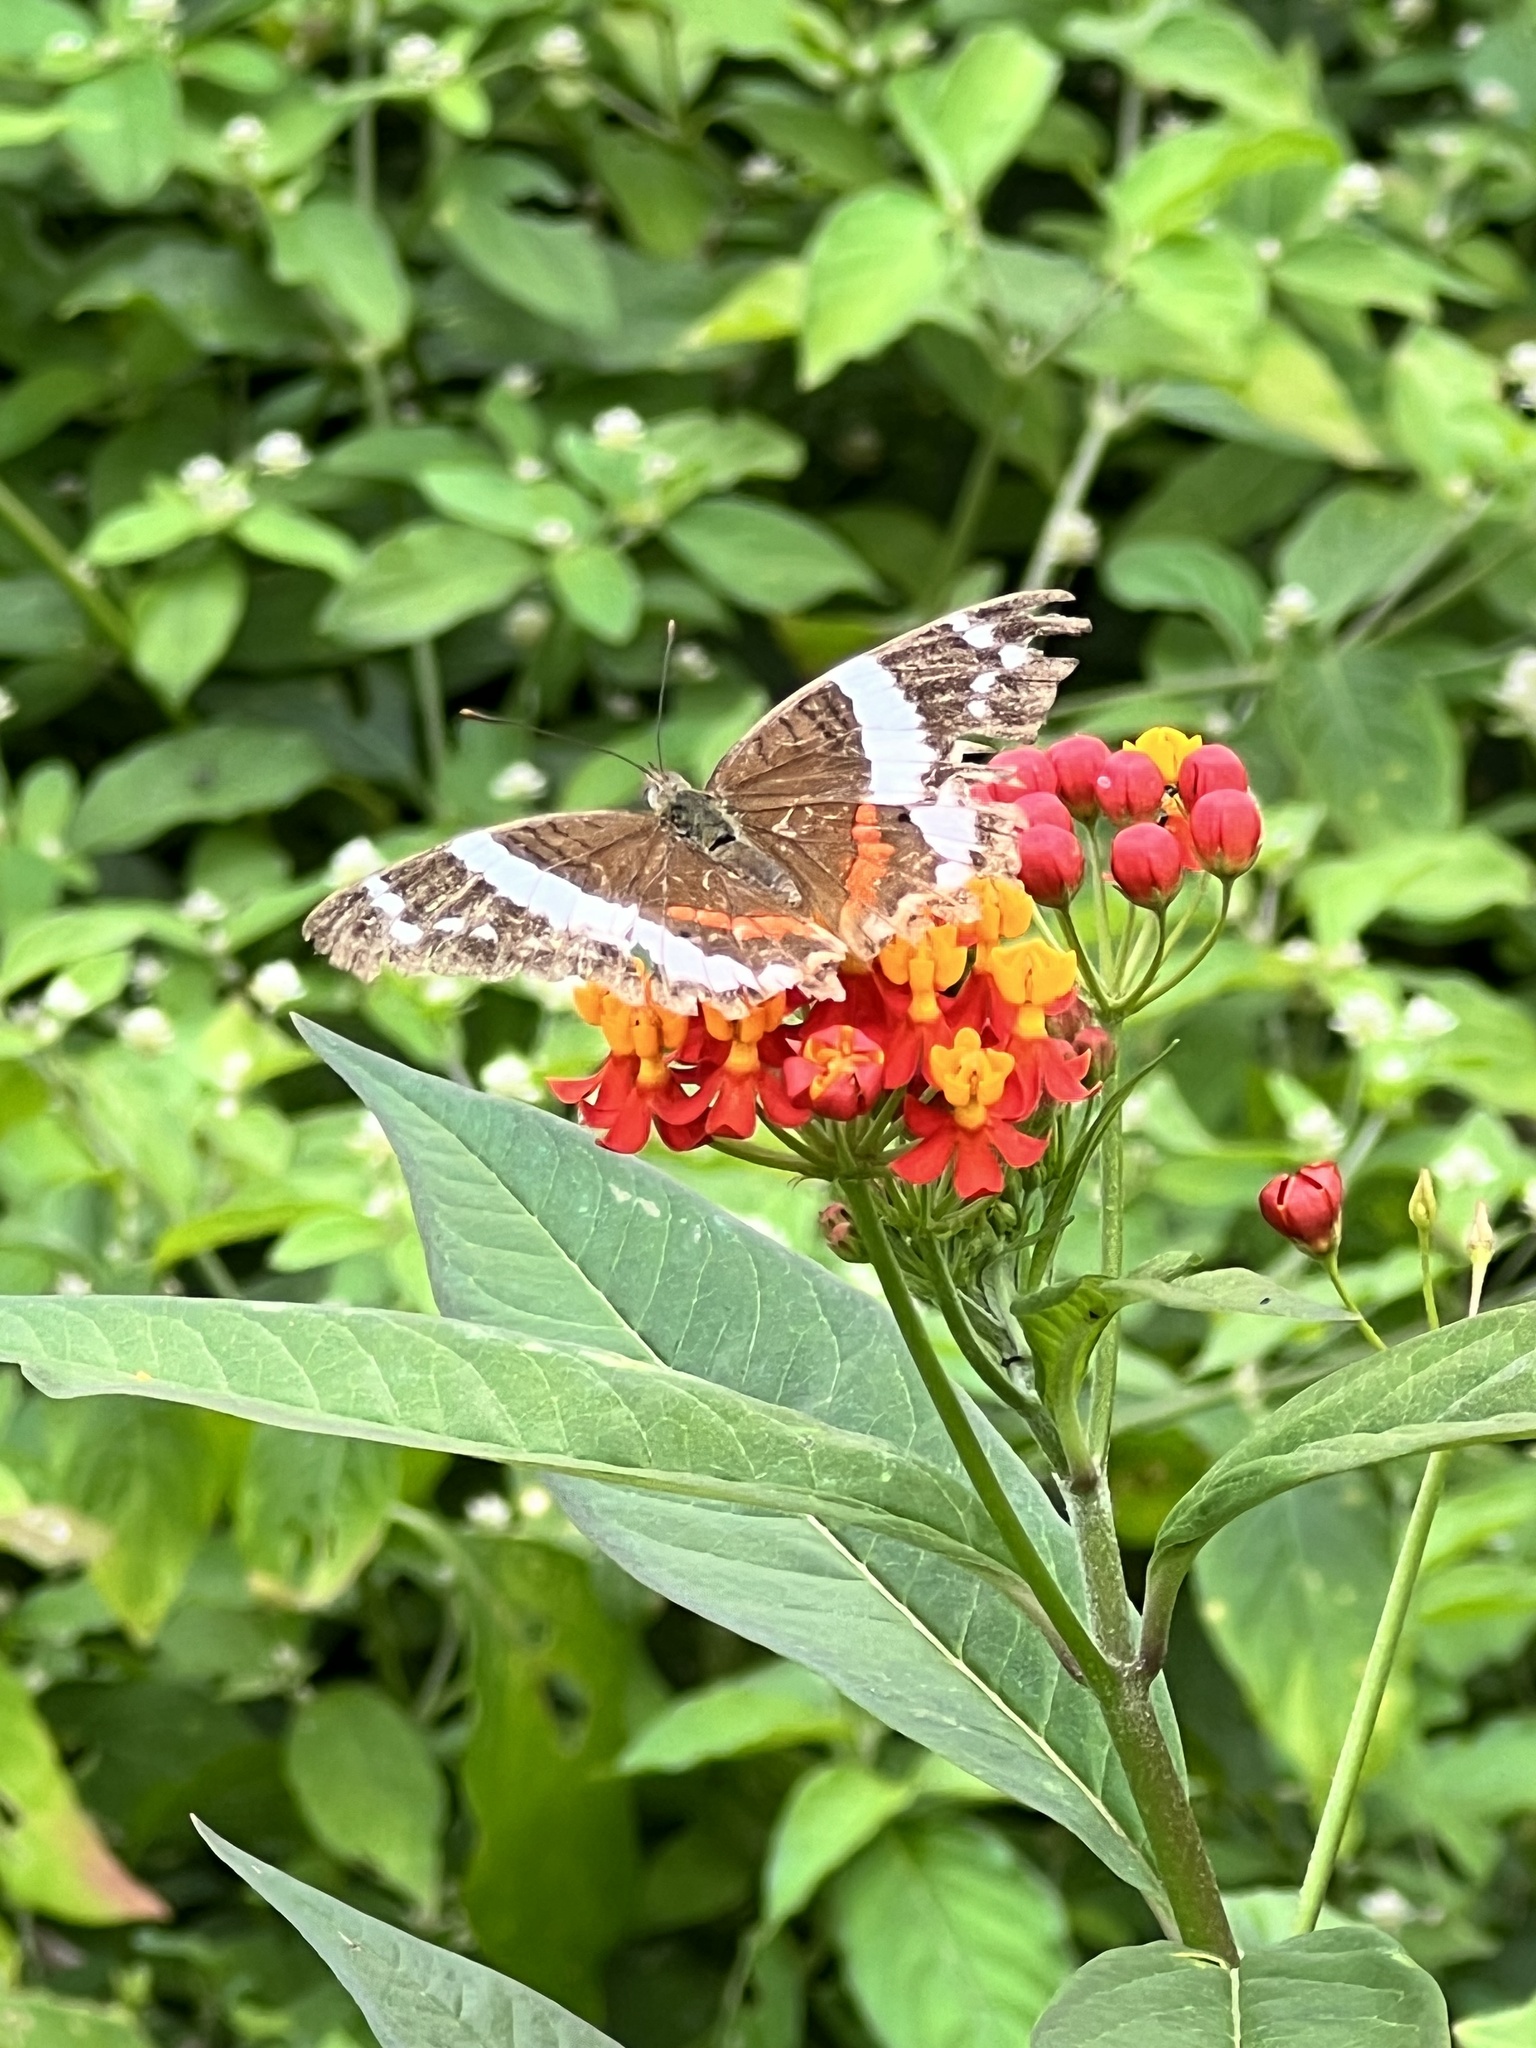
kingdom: Animalia
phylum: Arthropoda
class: Insecta
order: Lepidoptera
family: Nymphalidae
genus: Anartia
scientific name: Anartia fatima
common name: Banded peacock
